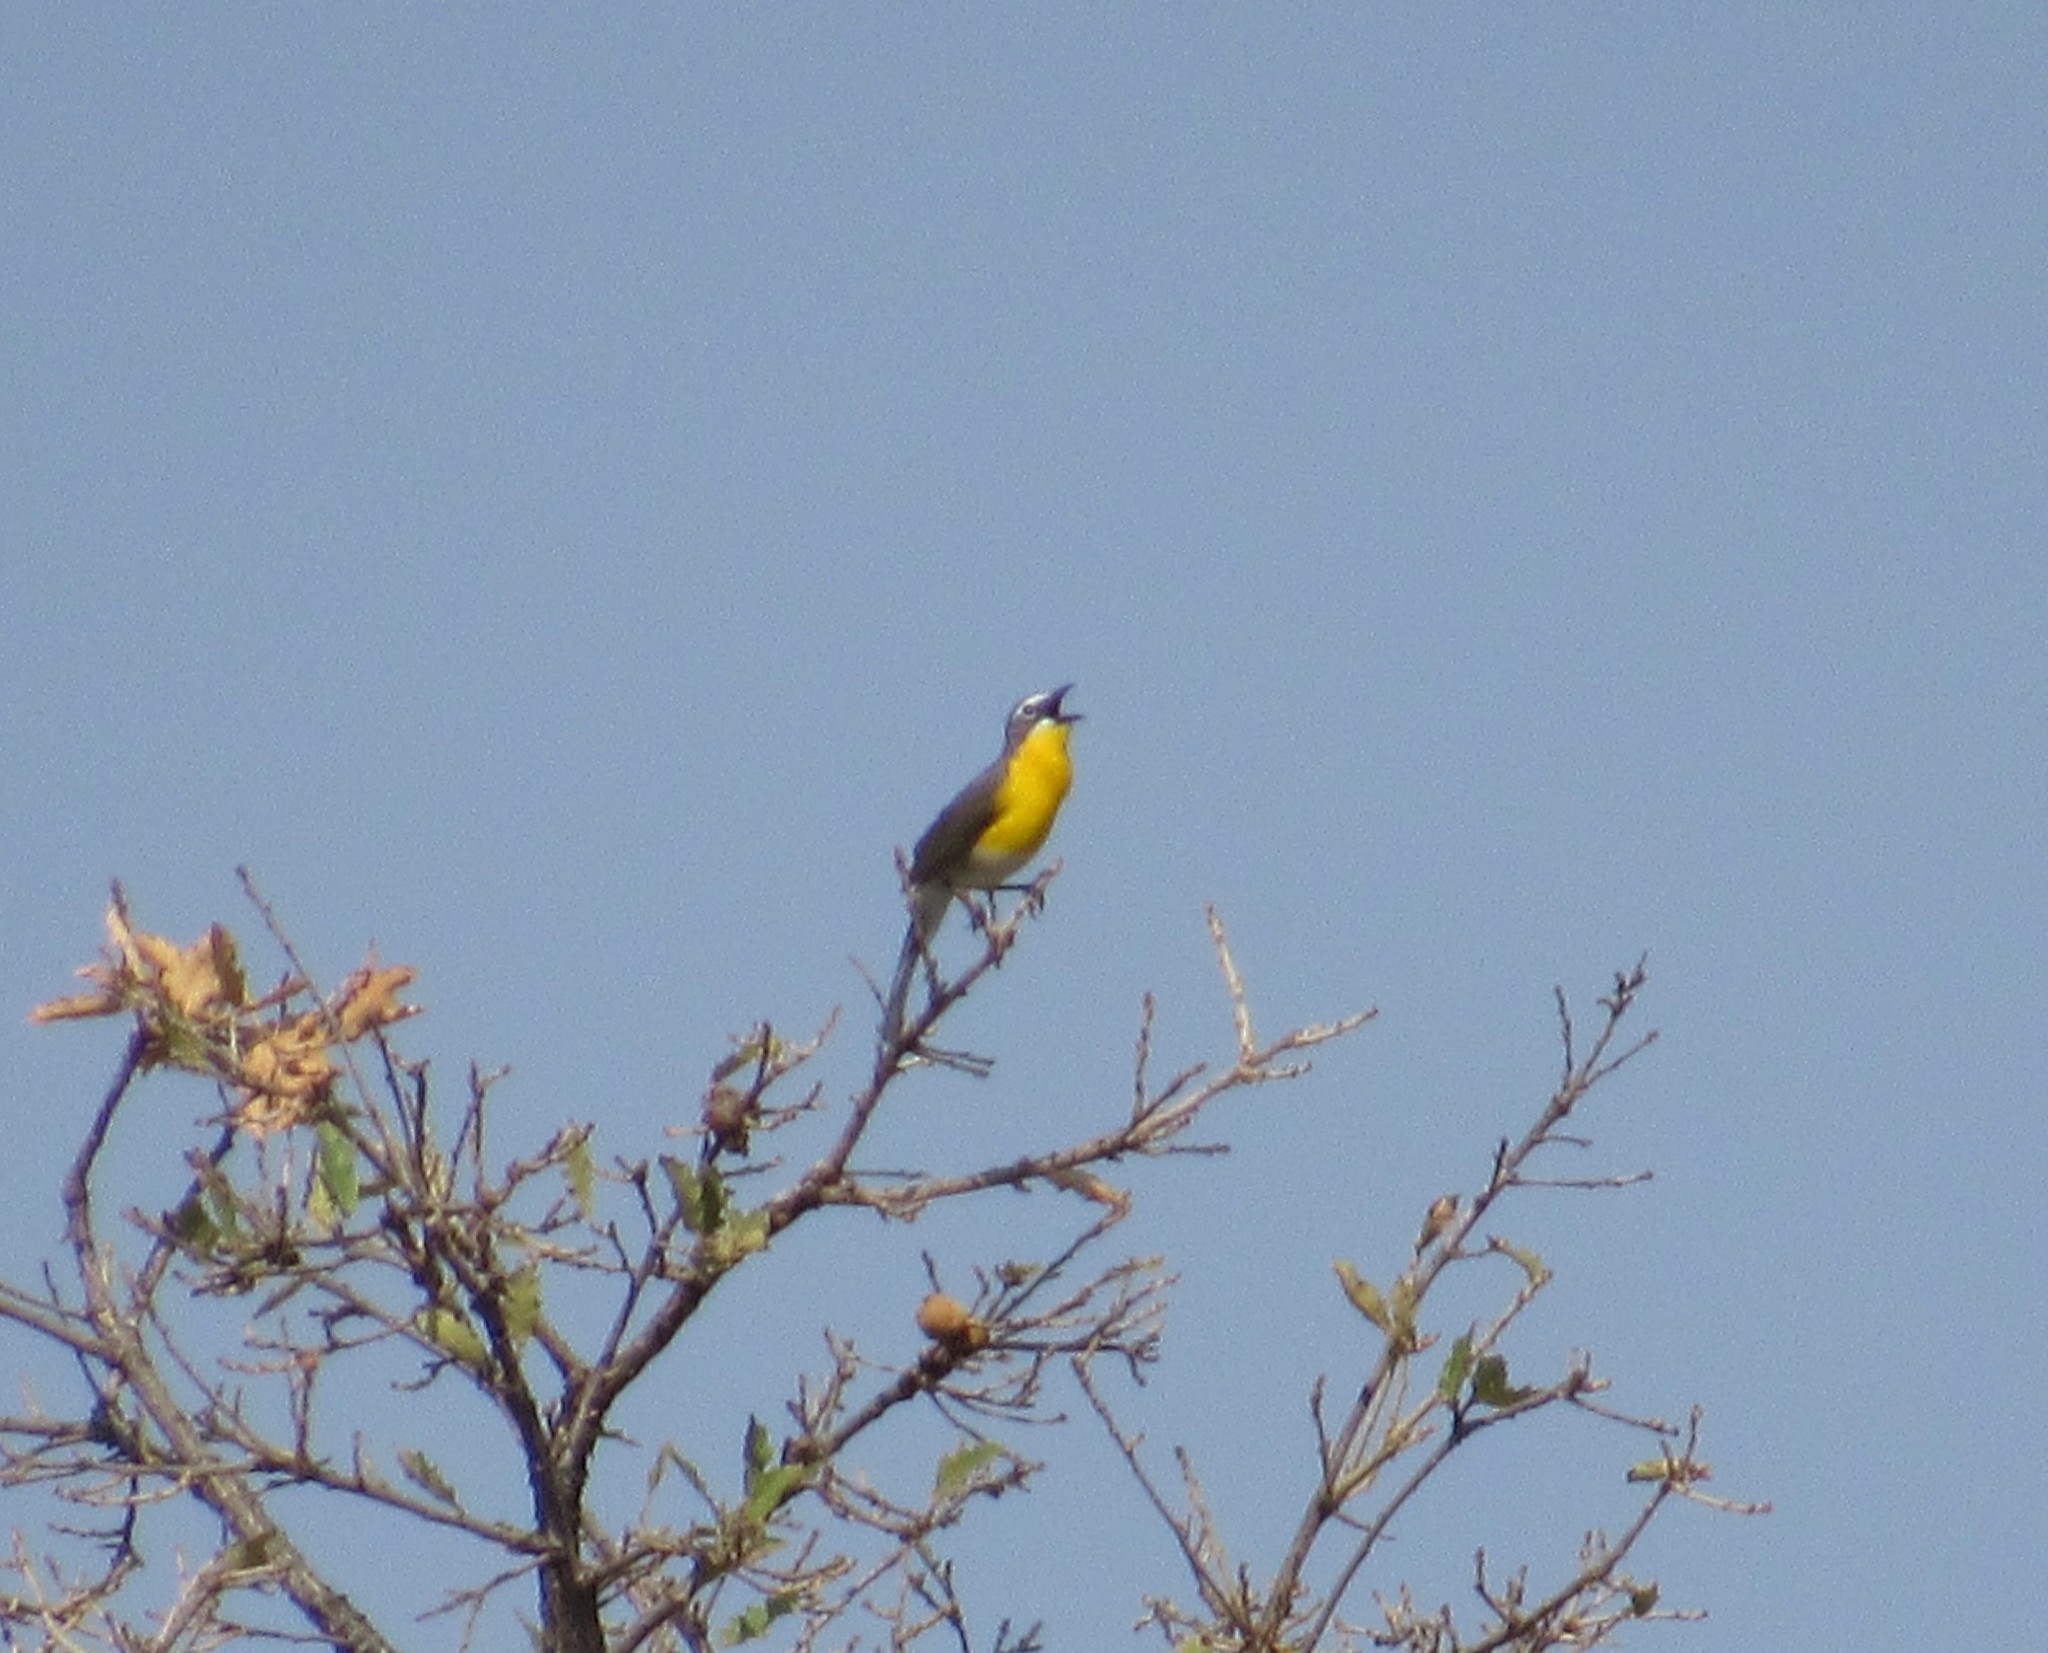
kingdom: Animalia
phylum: Chordata
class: Aves
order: Passeriformes
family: Parulidae
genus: Icteria
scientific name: Icteria virens
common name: Yellow-breasted chat
